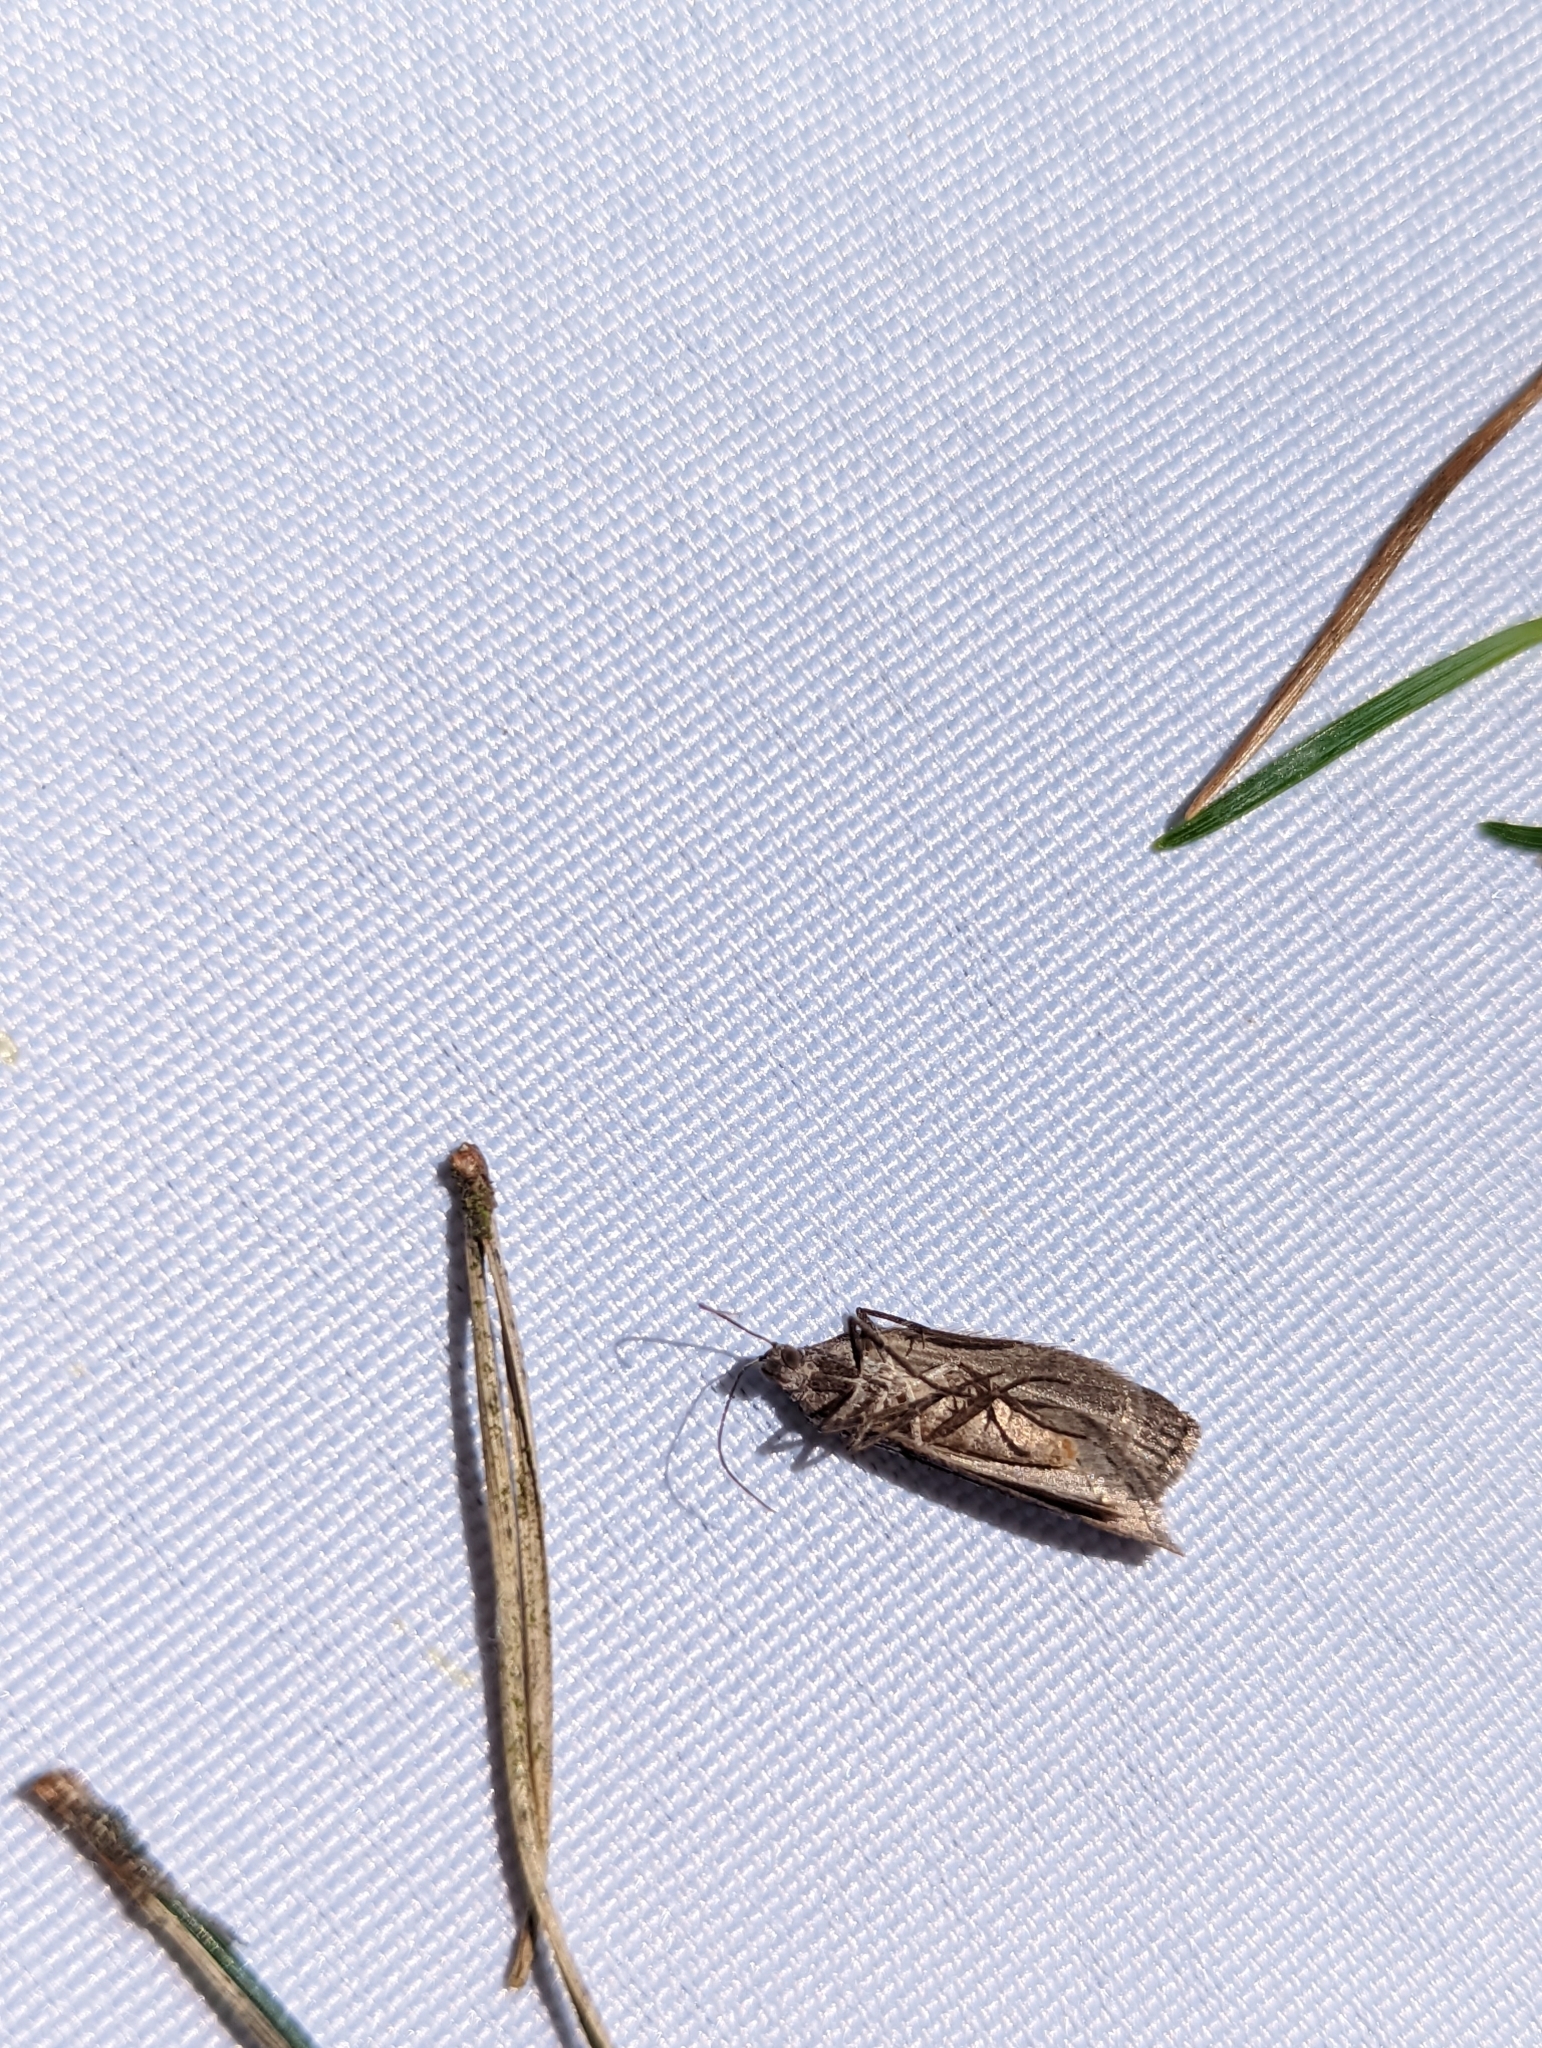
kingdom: Animalia
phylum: Arthropoda
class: Insecta
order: Lepidoptera
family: Geometridae
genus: Pachycnemia
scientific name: Pachycnemia hippocastanaria
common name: Horse chestnut
